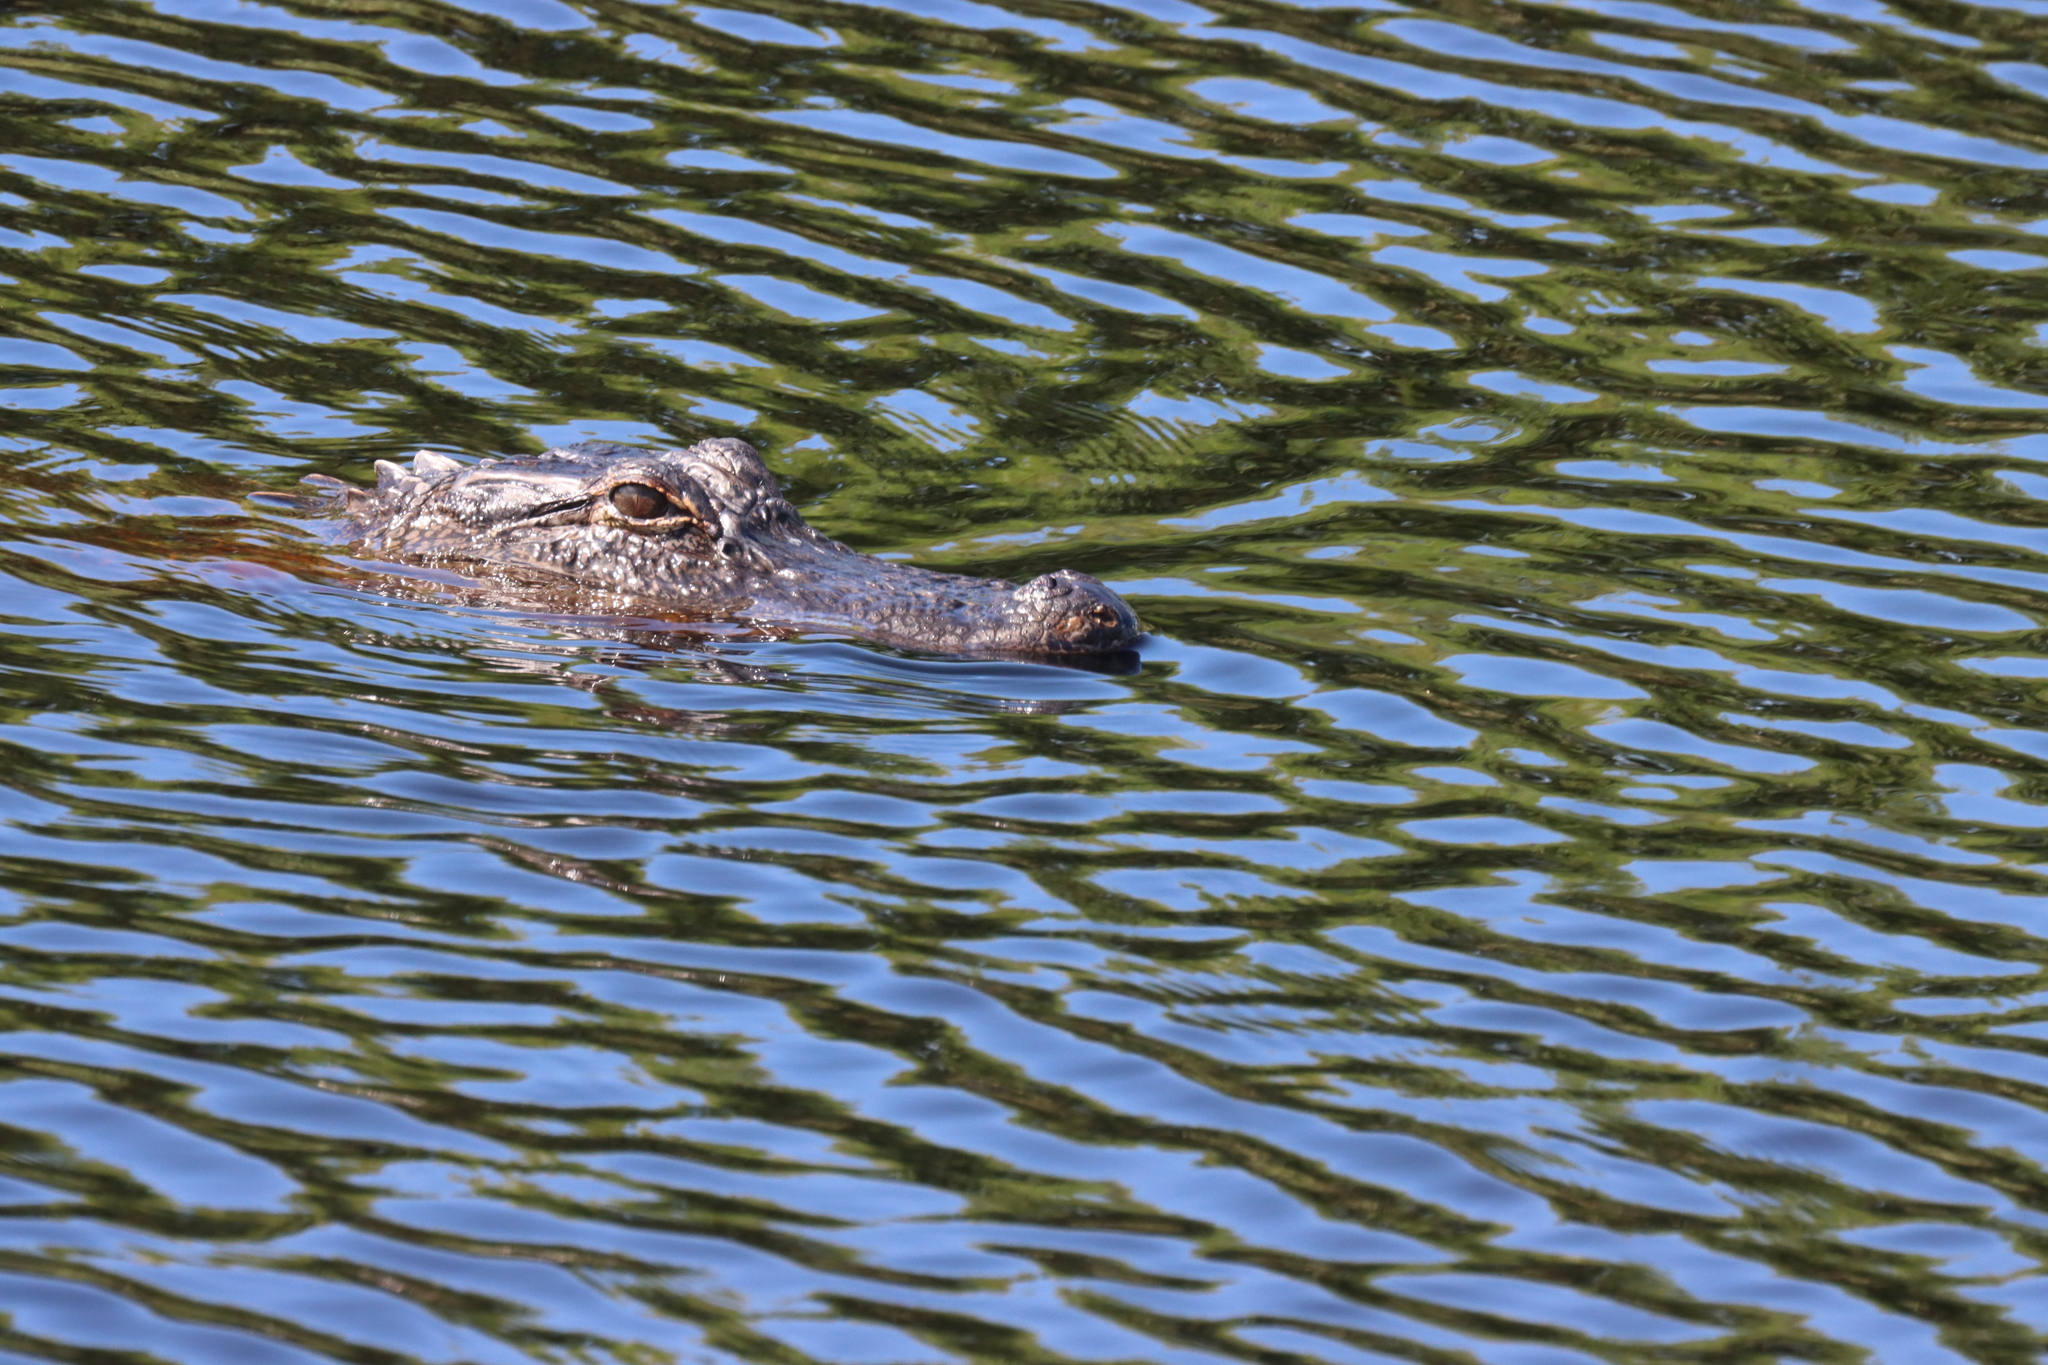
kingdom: Animalia
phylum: Chordata
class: Crocodylia
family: Alligatoridae
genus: Alligator
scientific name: Alligator mississippiensis
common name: American alligator
